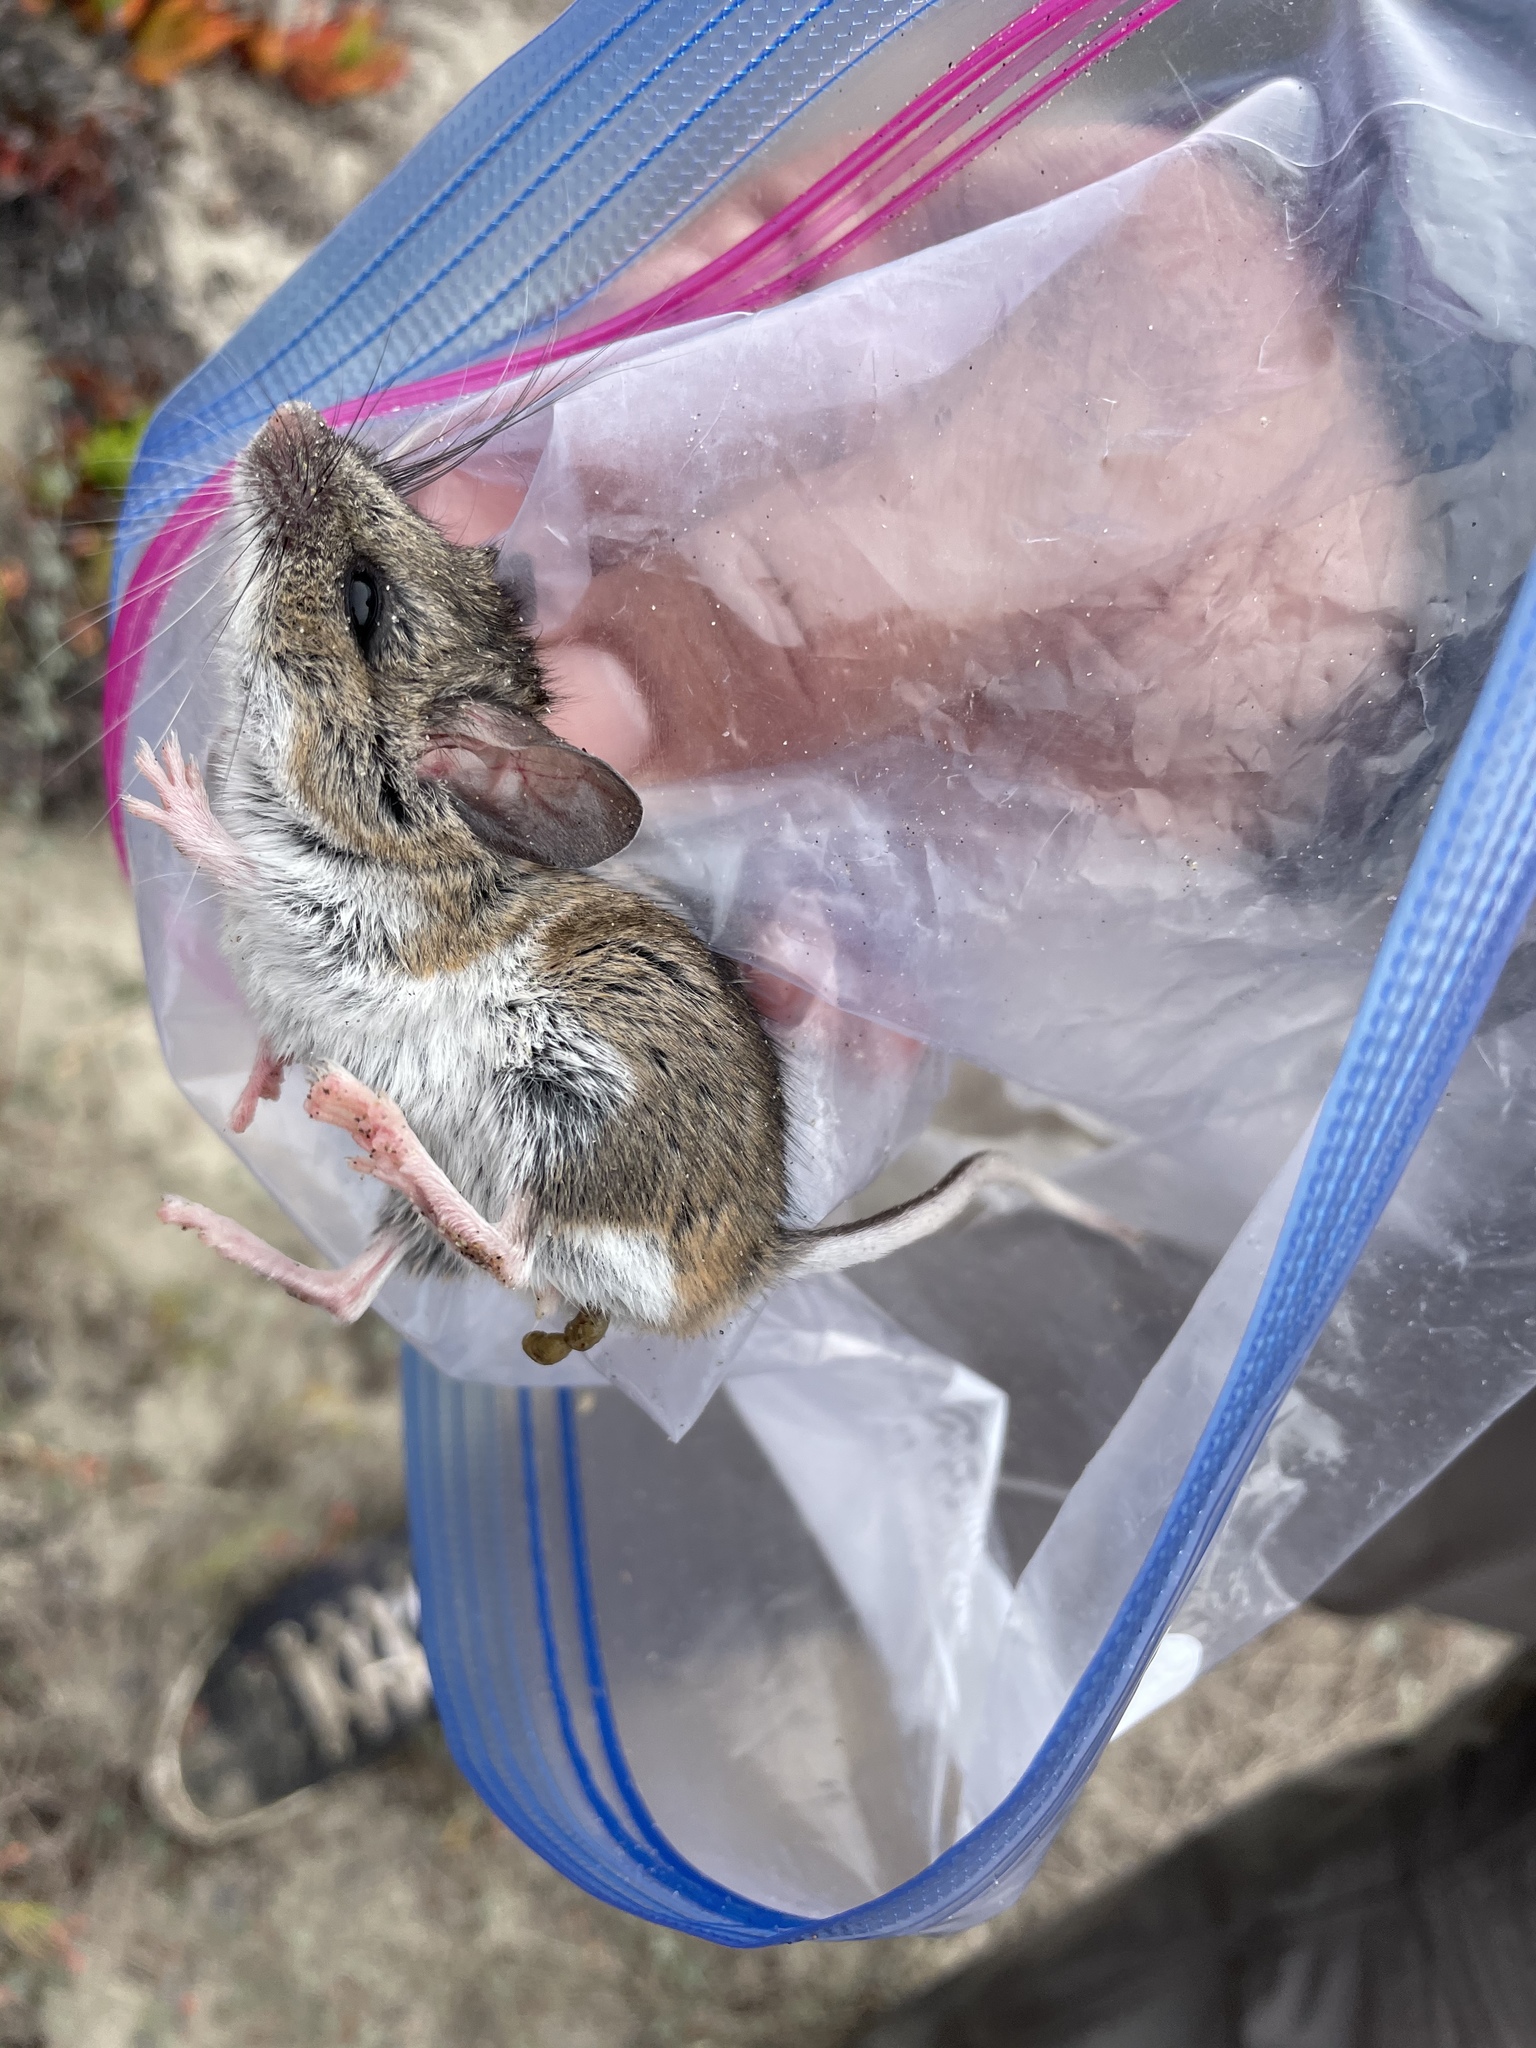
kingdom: Animalia
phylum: Chordata
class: Mammalia
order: Rodentia
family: Cricetidae
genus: Peromyscus
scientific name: Peromyscus maniculatus
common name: Deer mouse
